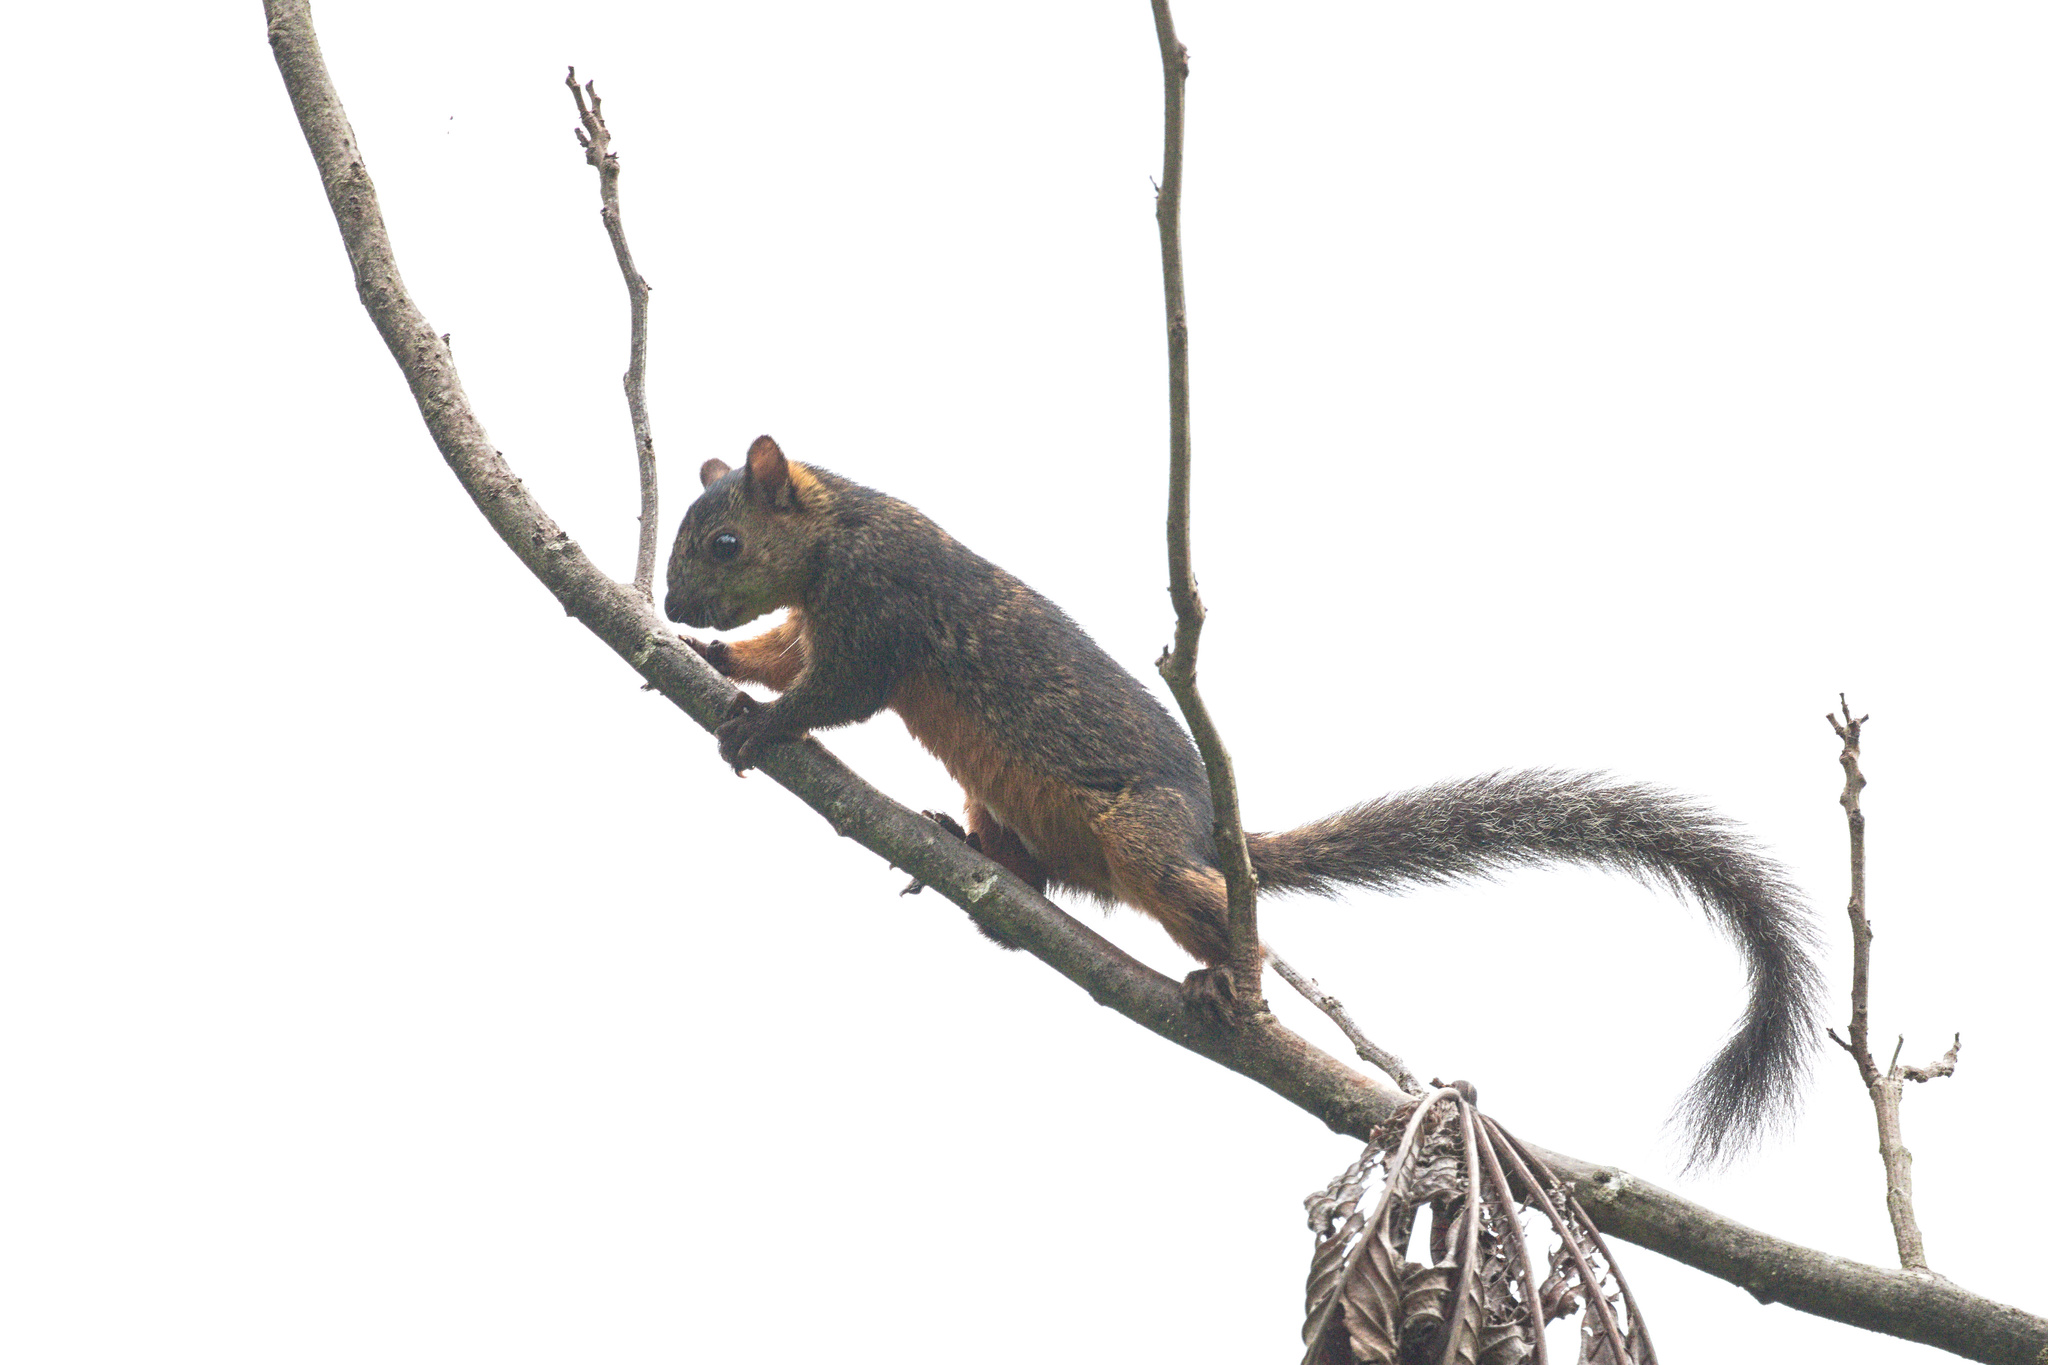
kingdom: Animalia
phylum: Chordata
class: Mammalia
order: Rodentia
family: Sciuridae
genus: Sciurus
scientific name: Sciurus variegatoides
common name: Variegated squirrel
